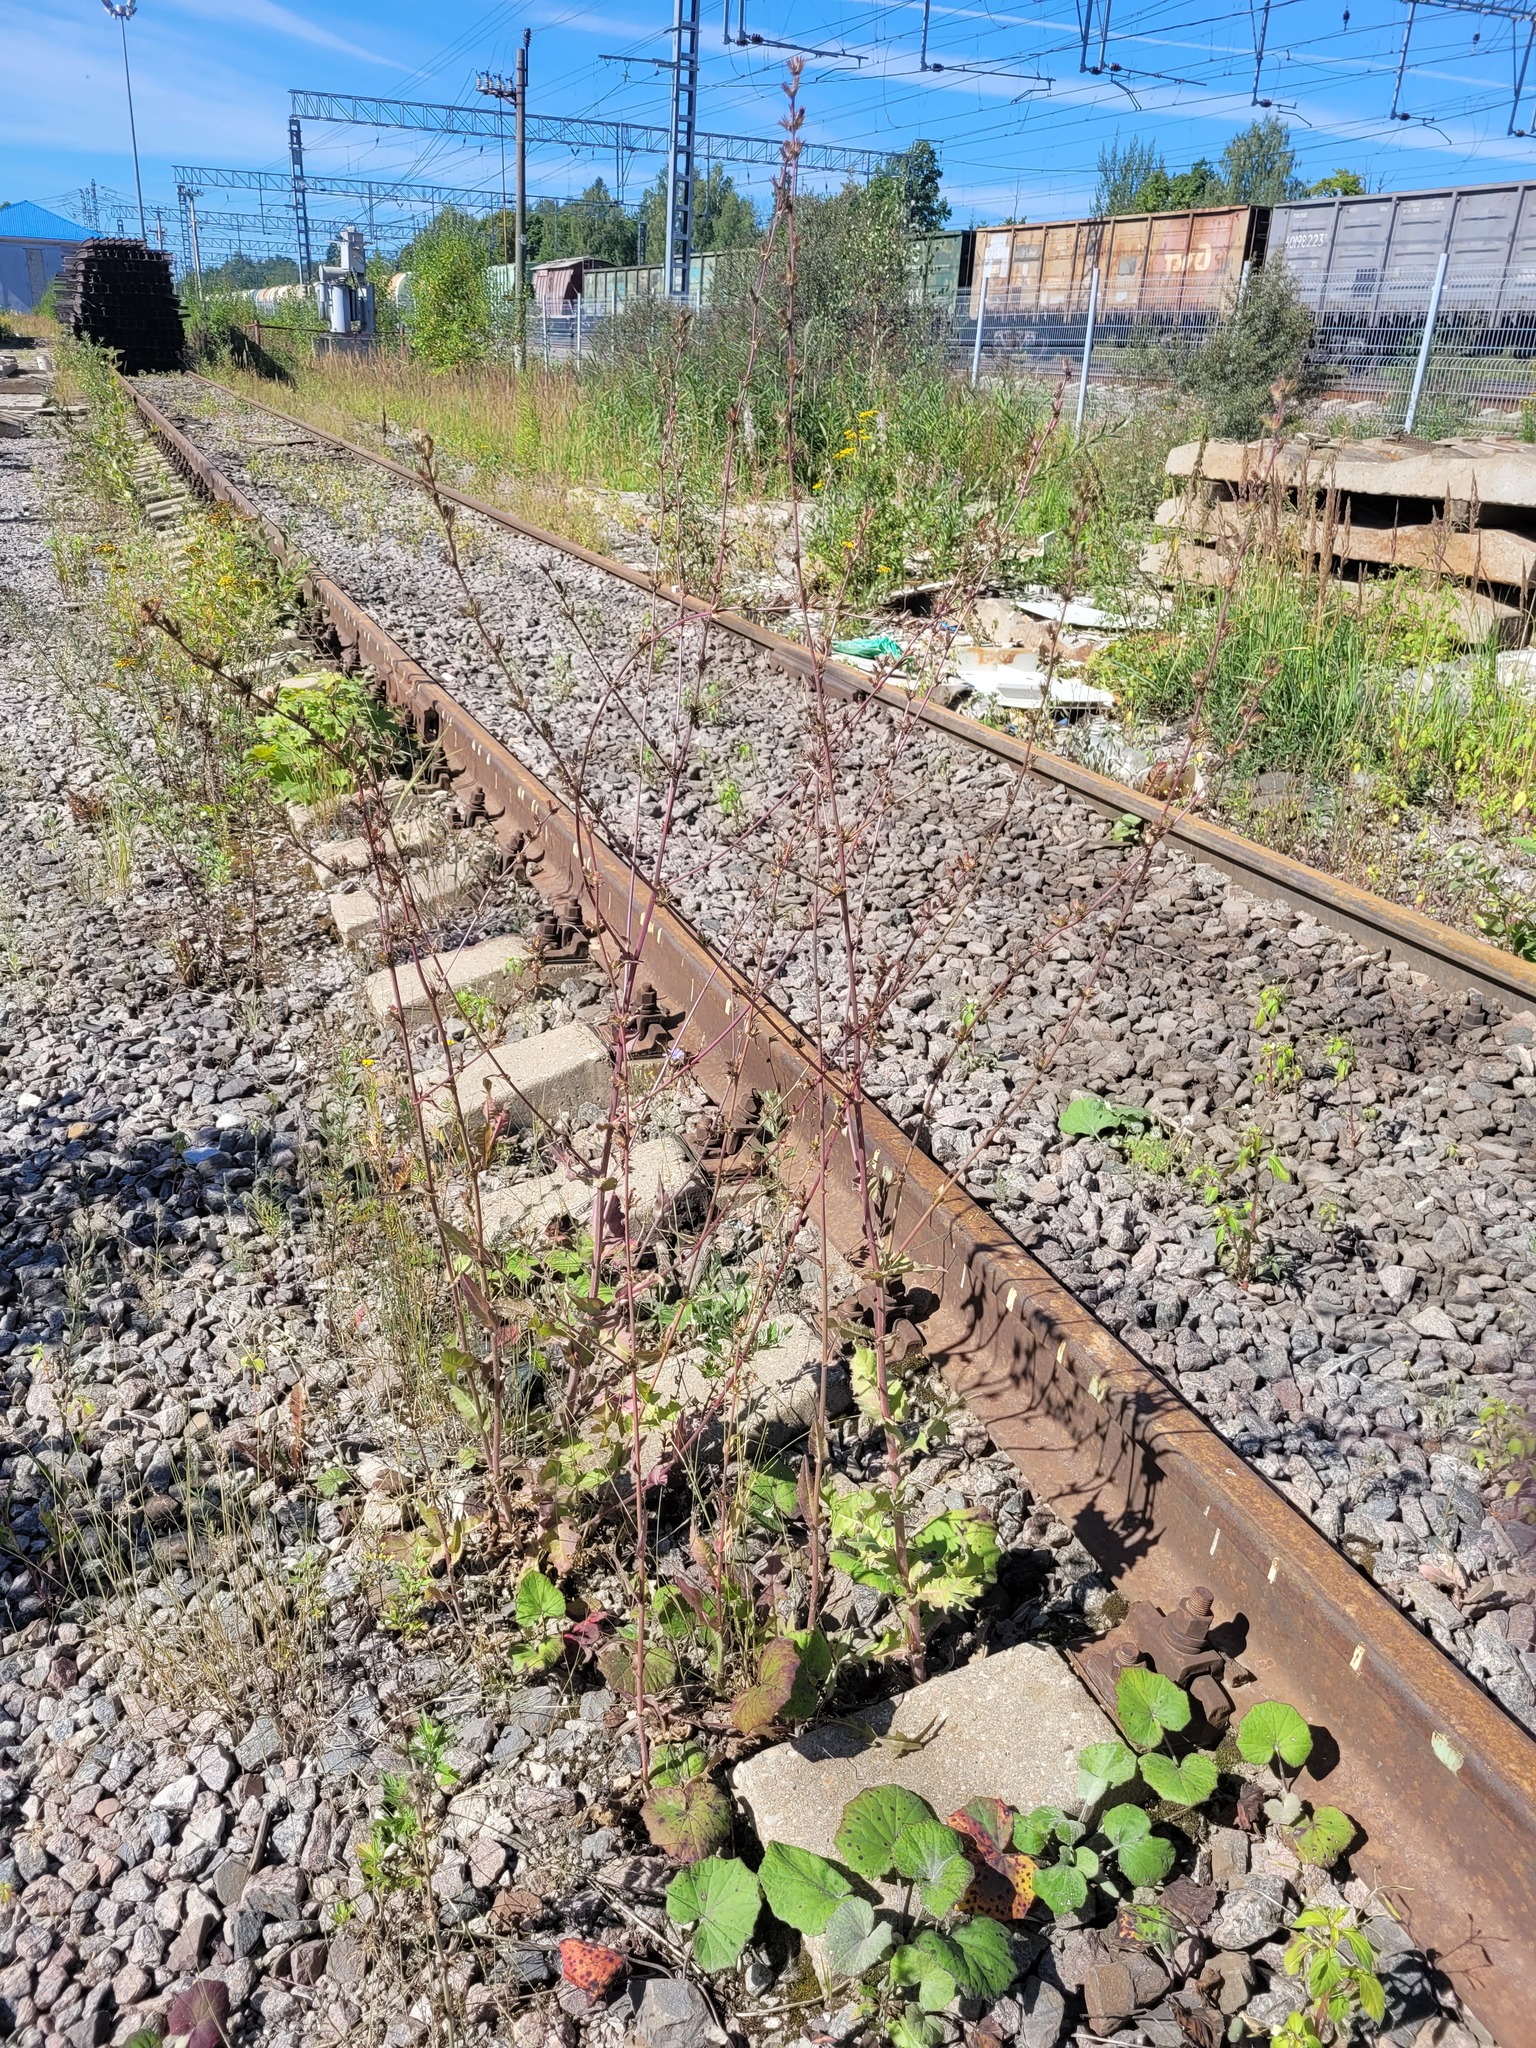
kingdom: Plantae
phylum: Tracheophyta
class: Magnoliopsida
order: Asterales
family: Asteraceae
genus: Cichorium
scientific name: Cichorium intybus
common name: Chicory
